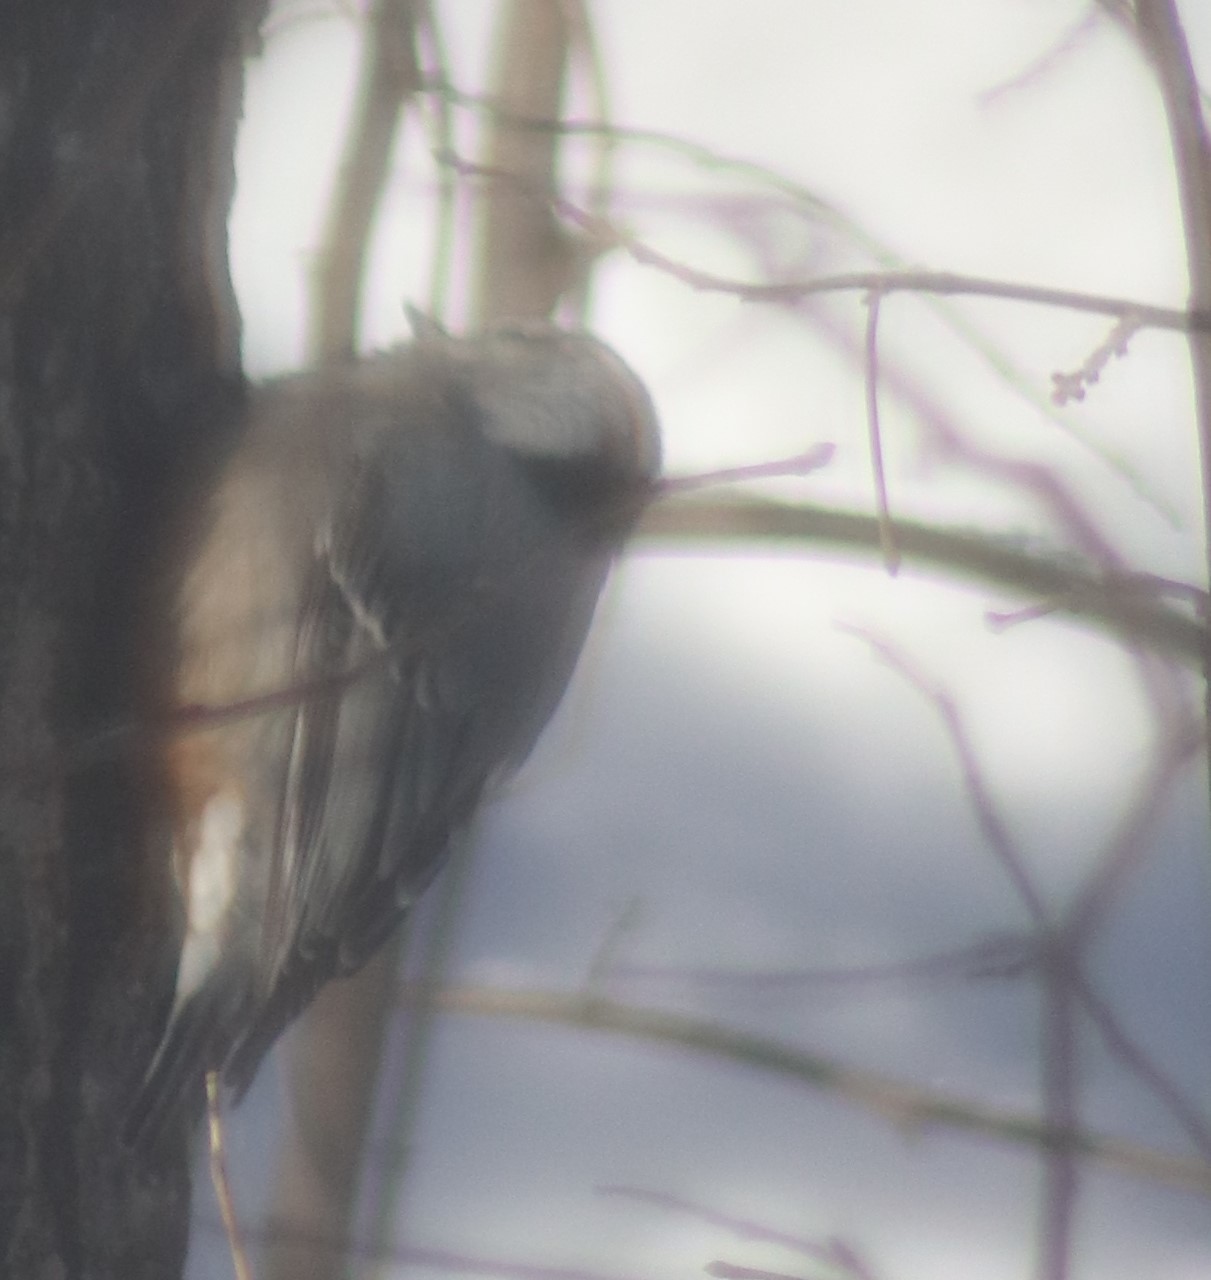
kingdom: Animalia
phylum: Chordata
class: Aves
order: Passeriformes
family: Sittidae
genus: Sitta
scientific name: Sitta carolinensis
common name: White-breasted nuthatch
